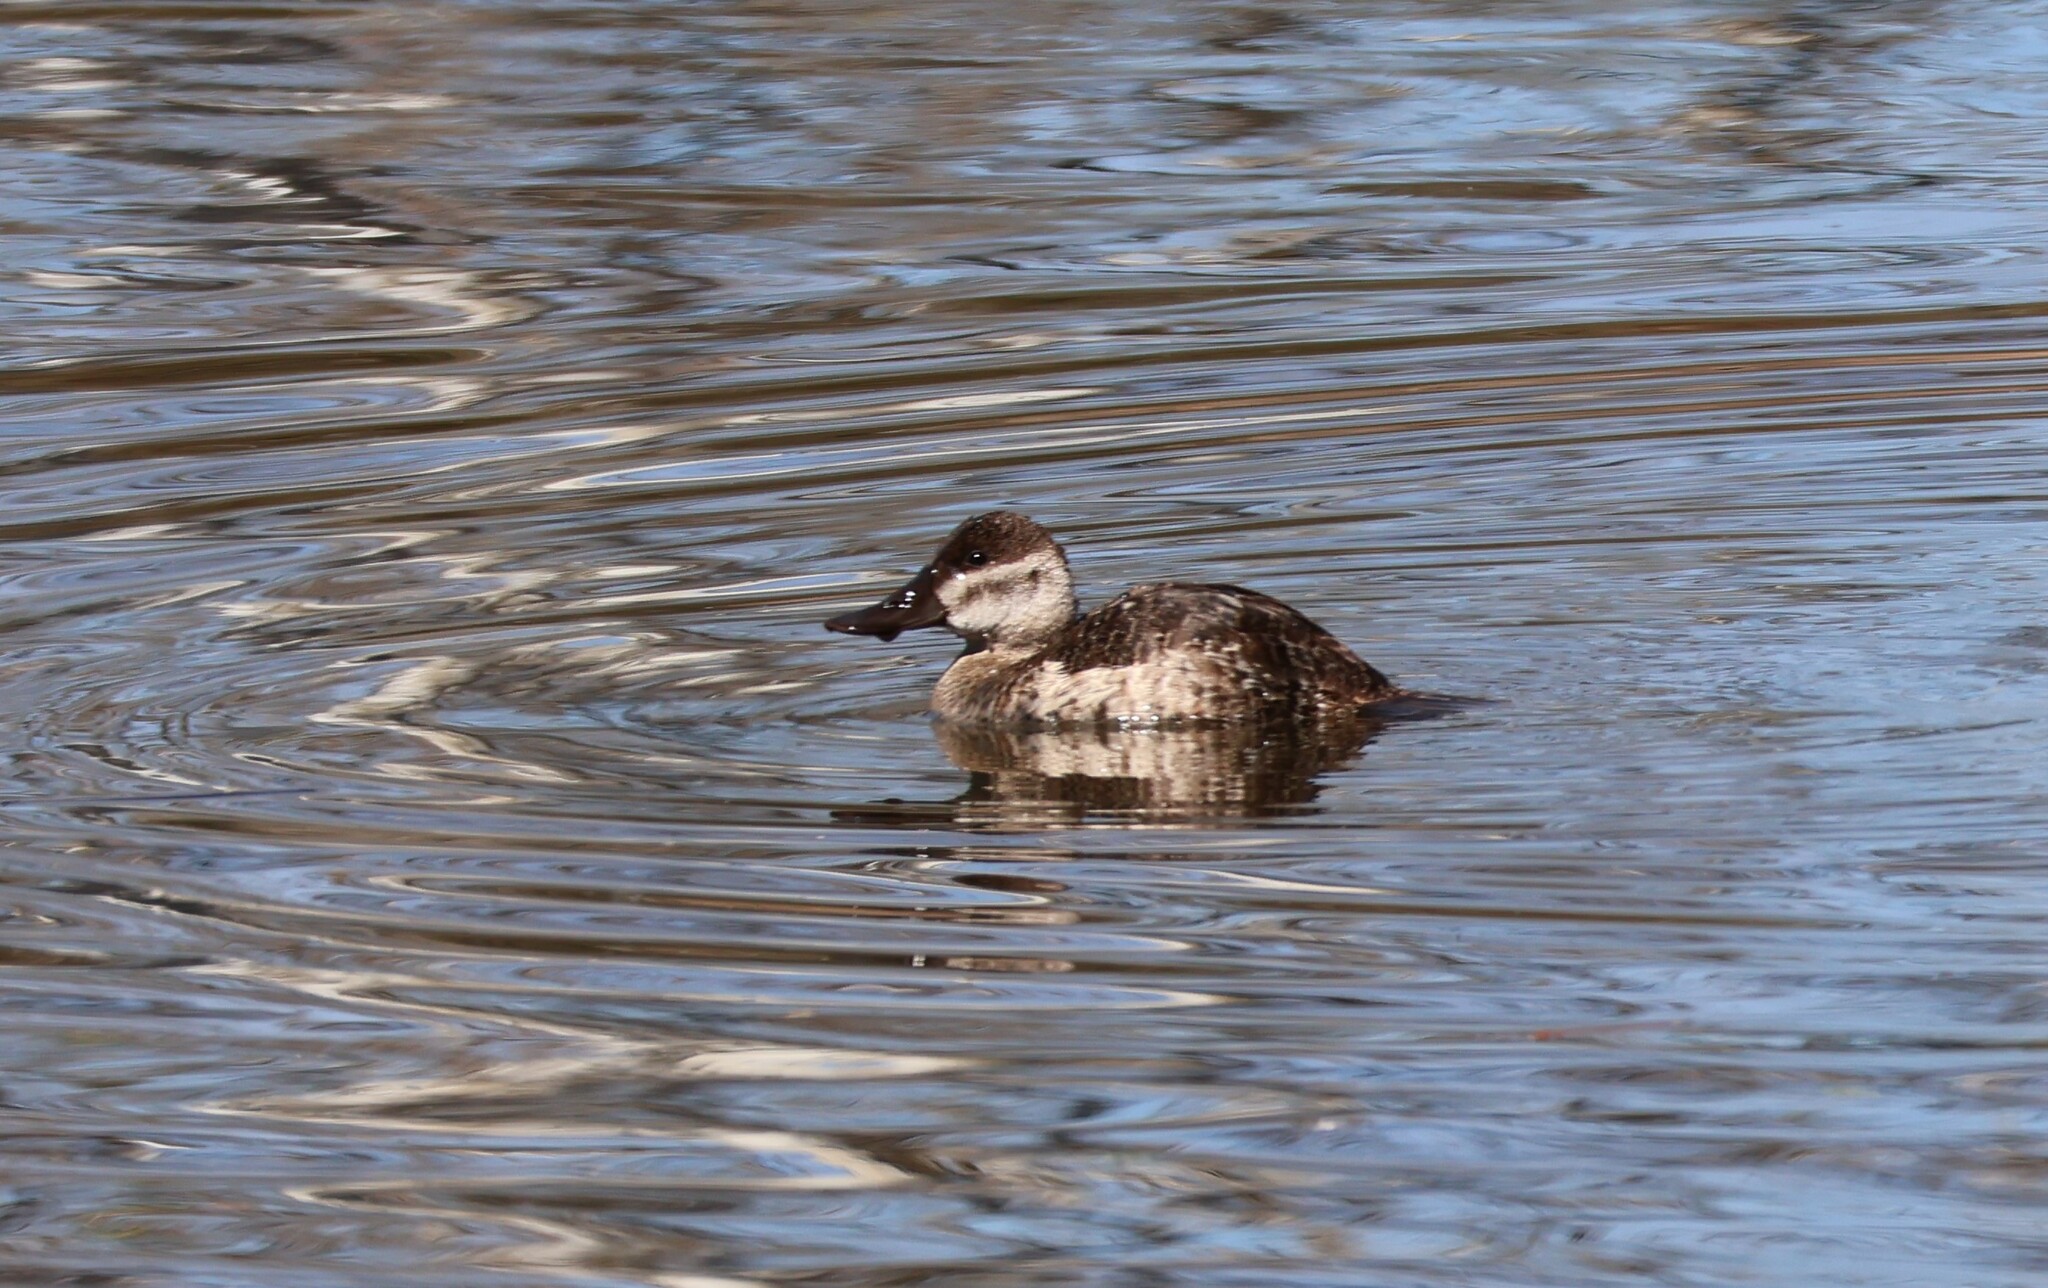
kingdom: Animalia
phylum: Chordata
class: Aves
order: Anseriformes
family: Anatidae
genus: Oxyura
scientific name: Oxyura jamaicensis
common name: Ruddy duck
